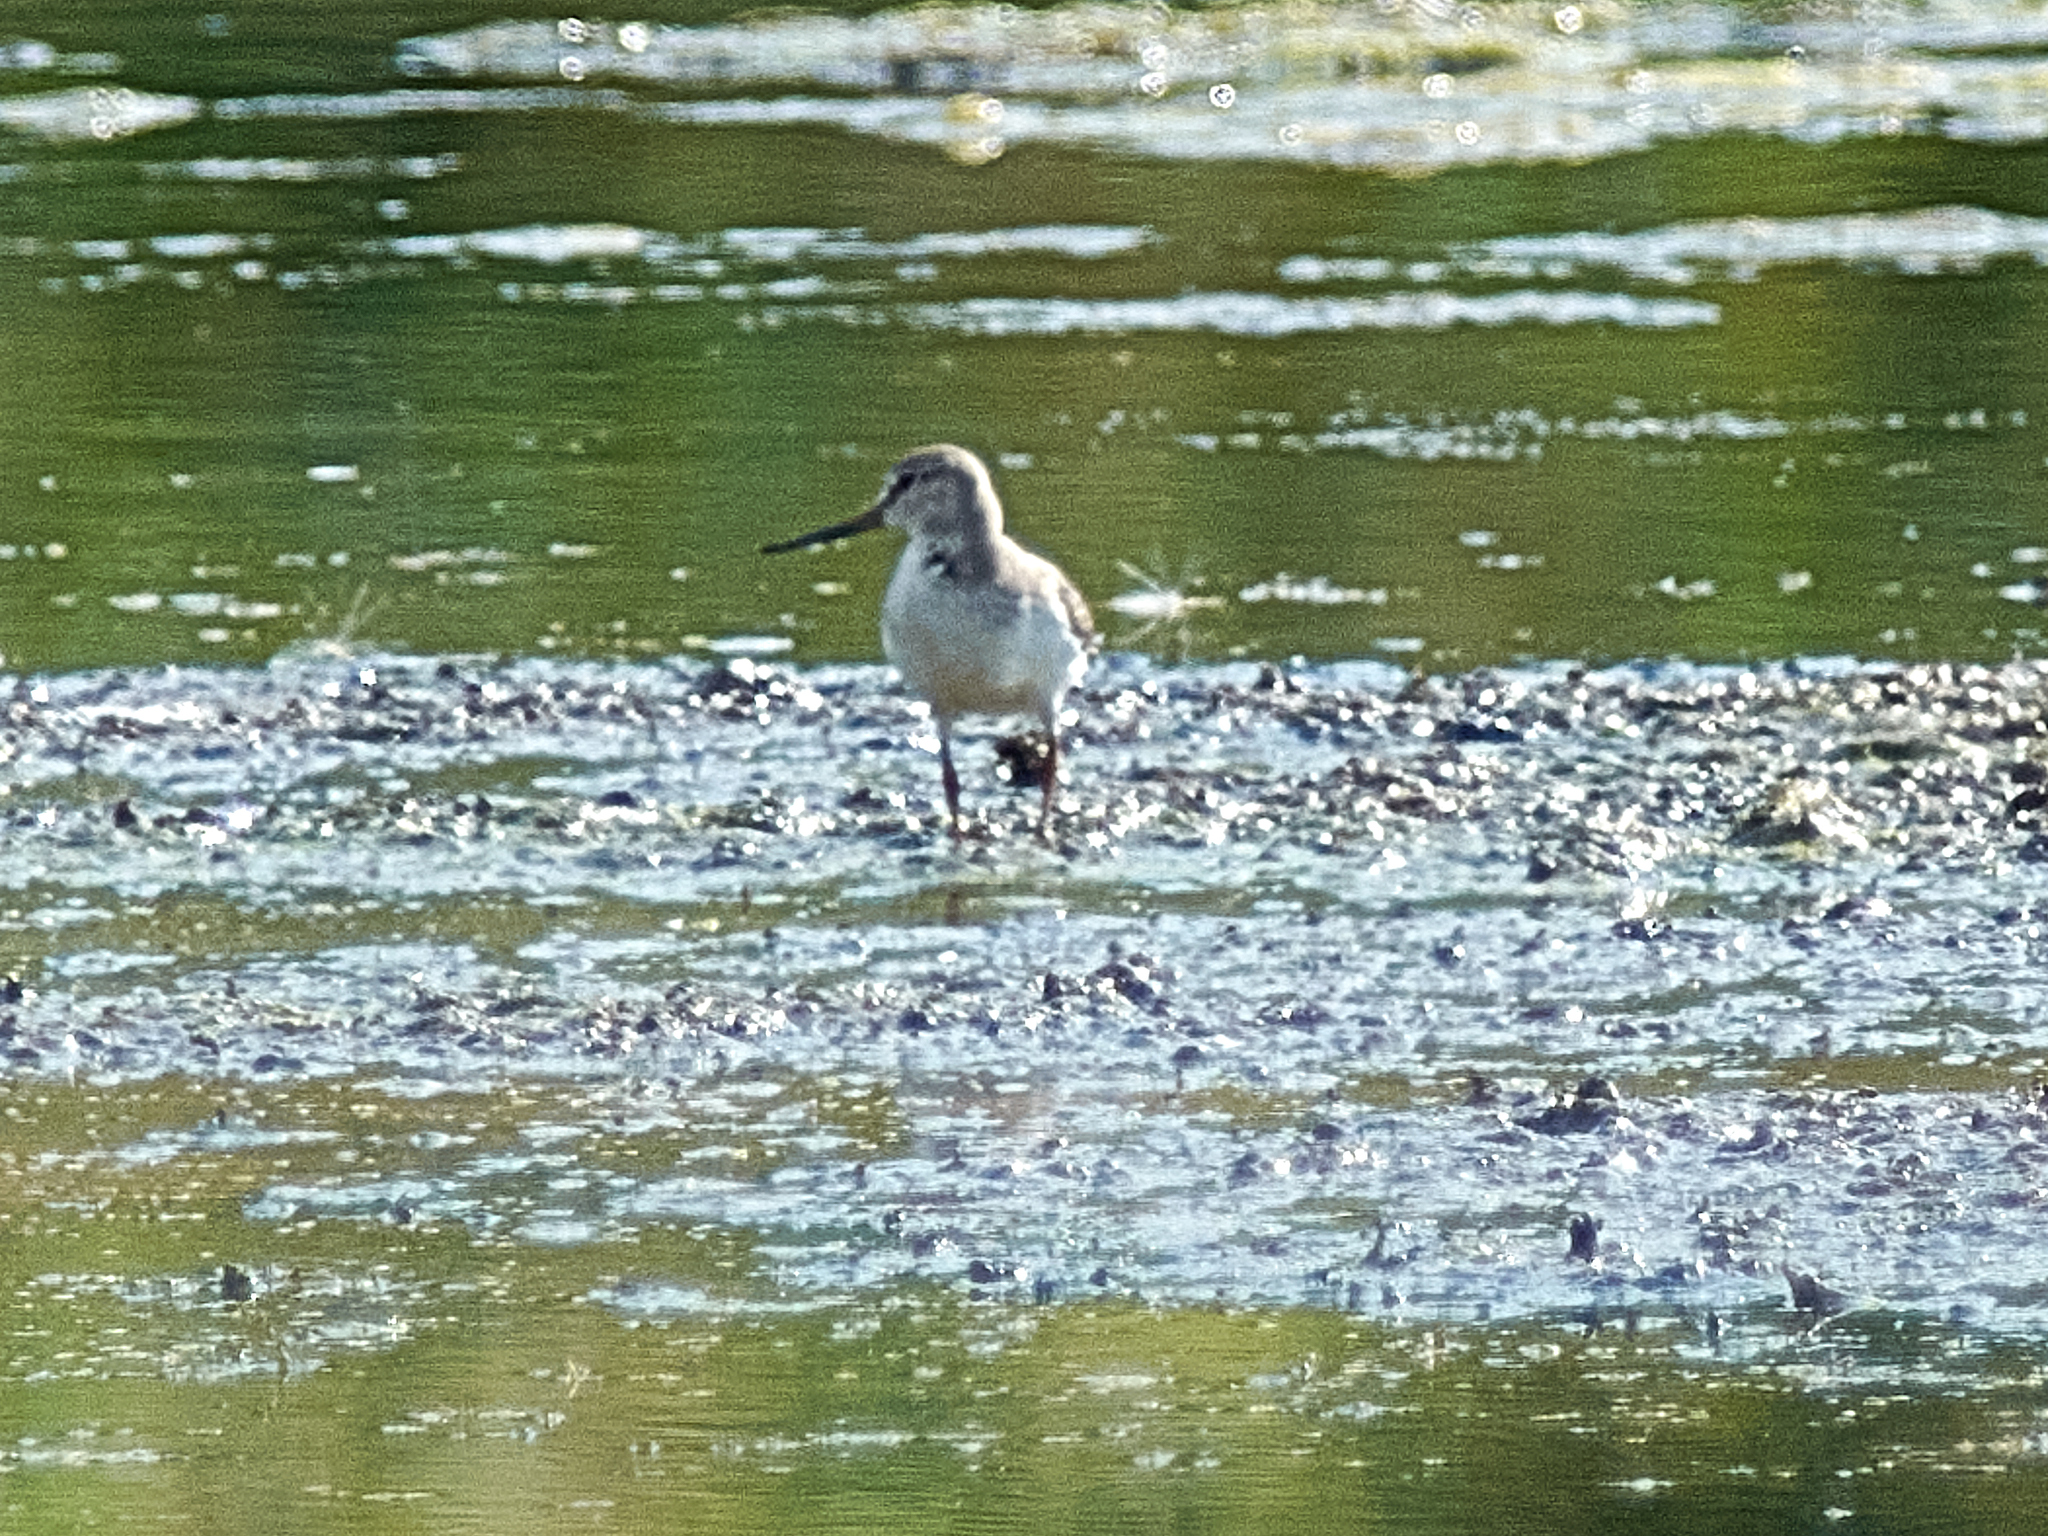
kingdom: Animalia
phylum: Chordata
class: Aves
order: Charadriiformes
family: Scolopacidae
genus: Xenus
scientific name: Xenus cinereus
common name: Terek sandpiper
